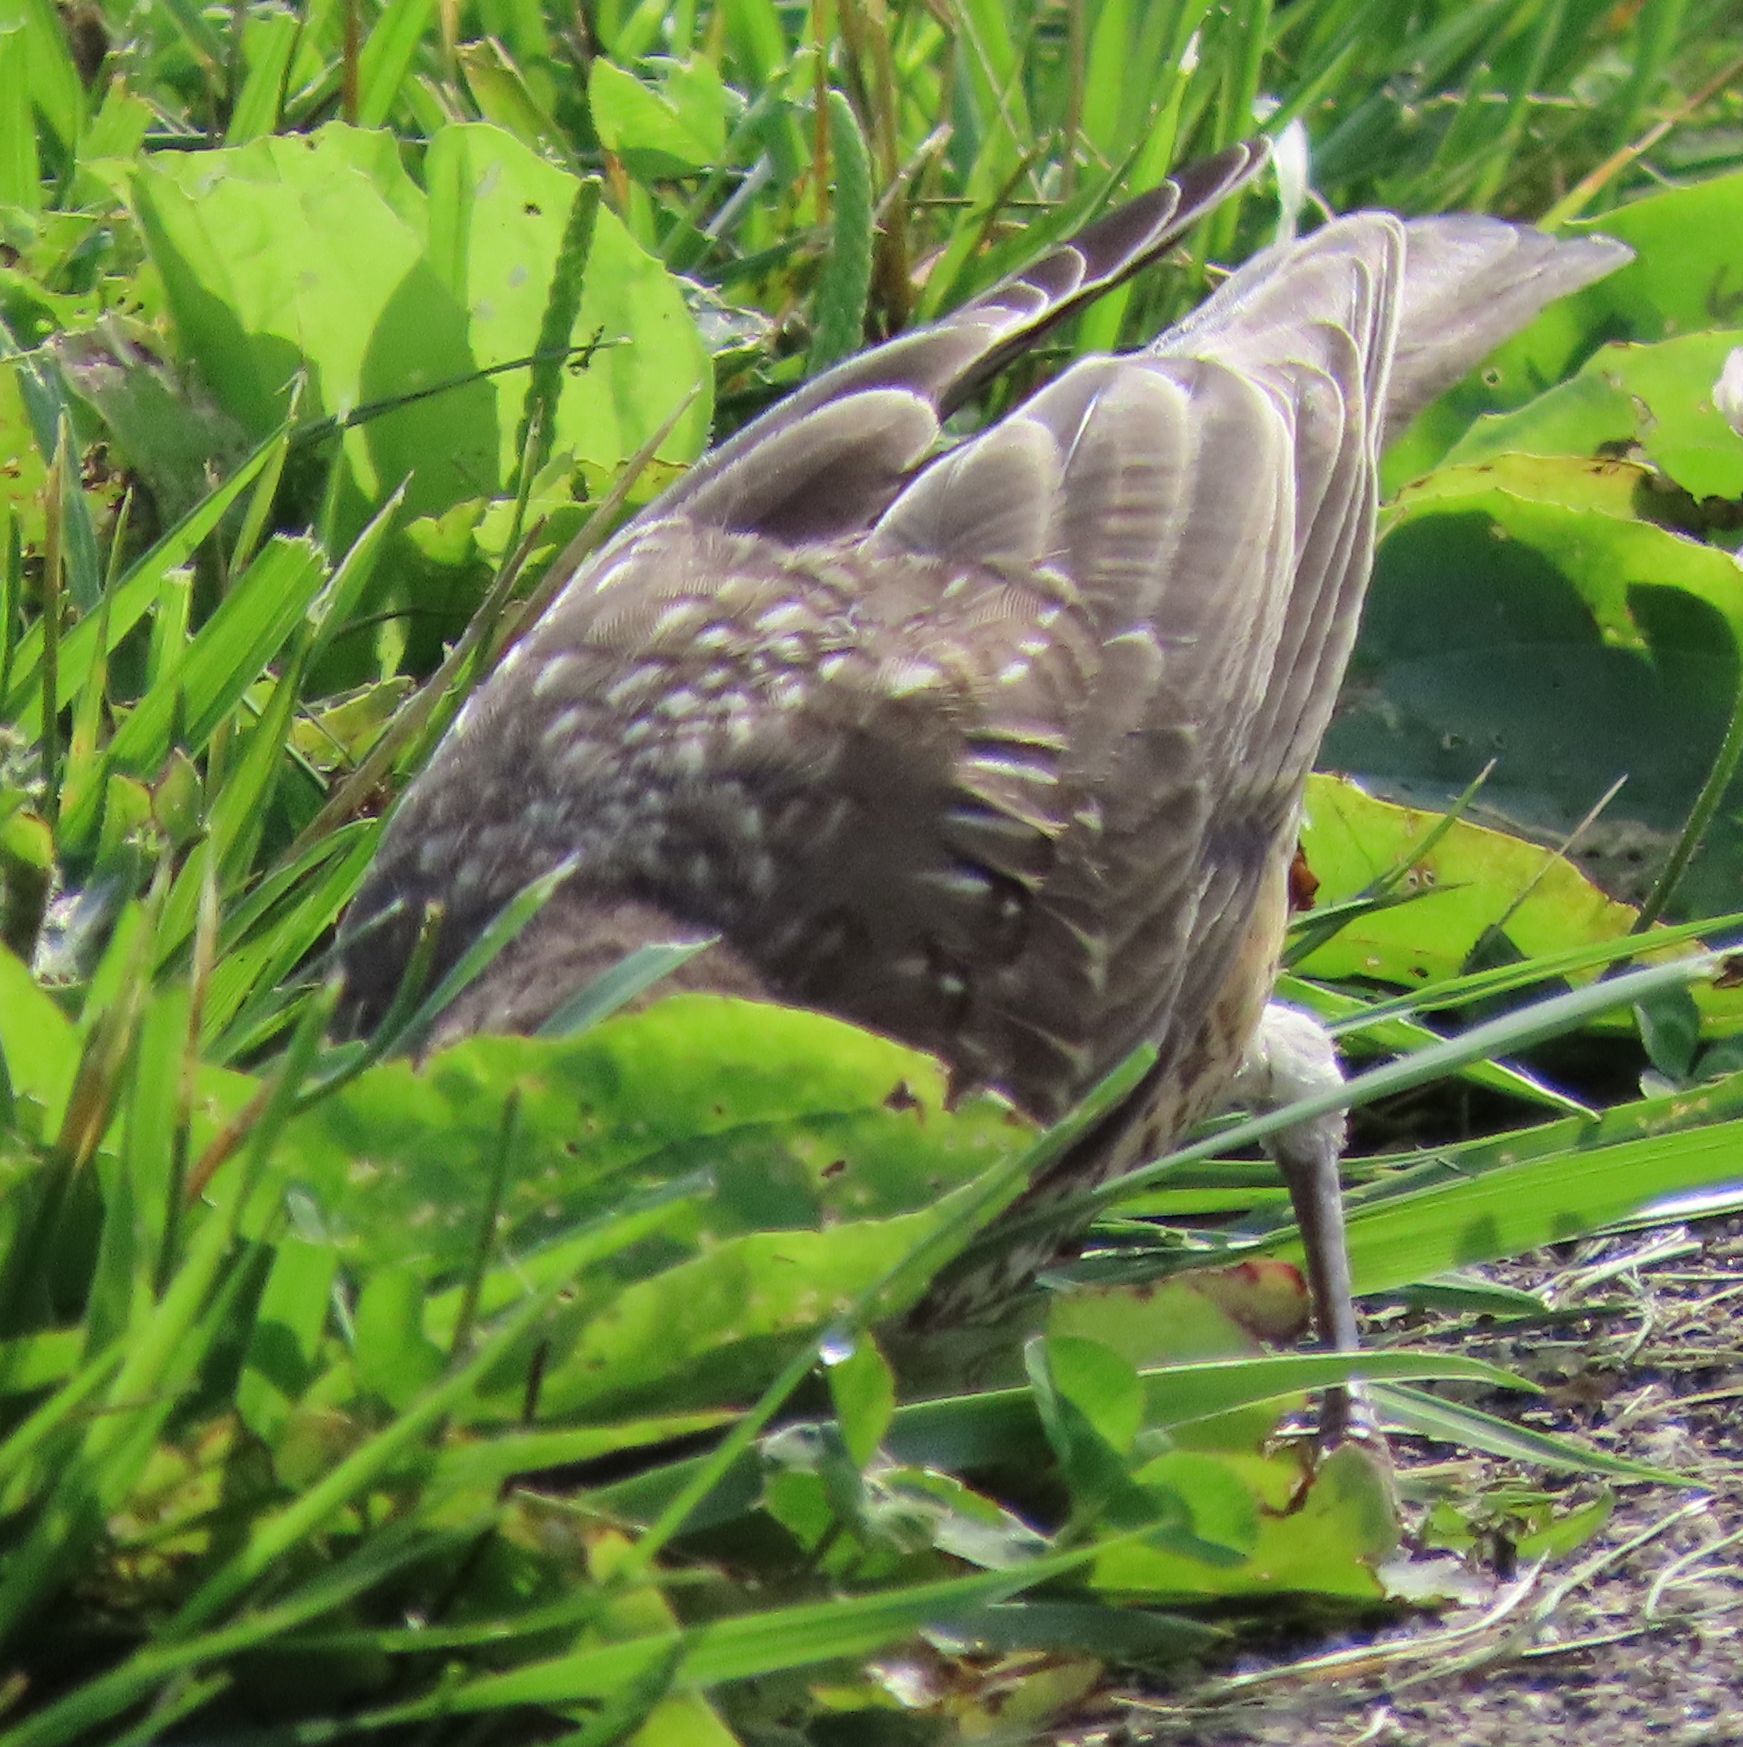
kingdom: Animalia
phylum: Chordata
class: Aves
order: Passeriformes
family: Turdidae
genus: Turdus
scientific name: Turdus migratorius
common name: American robin
